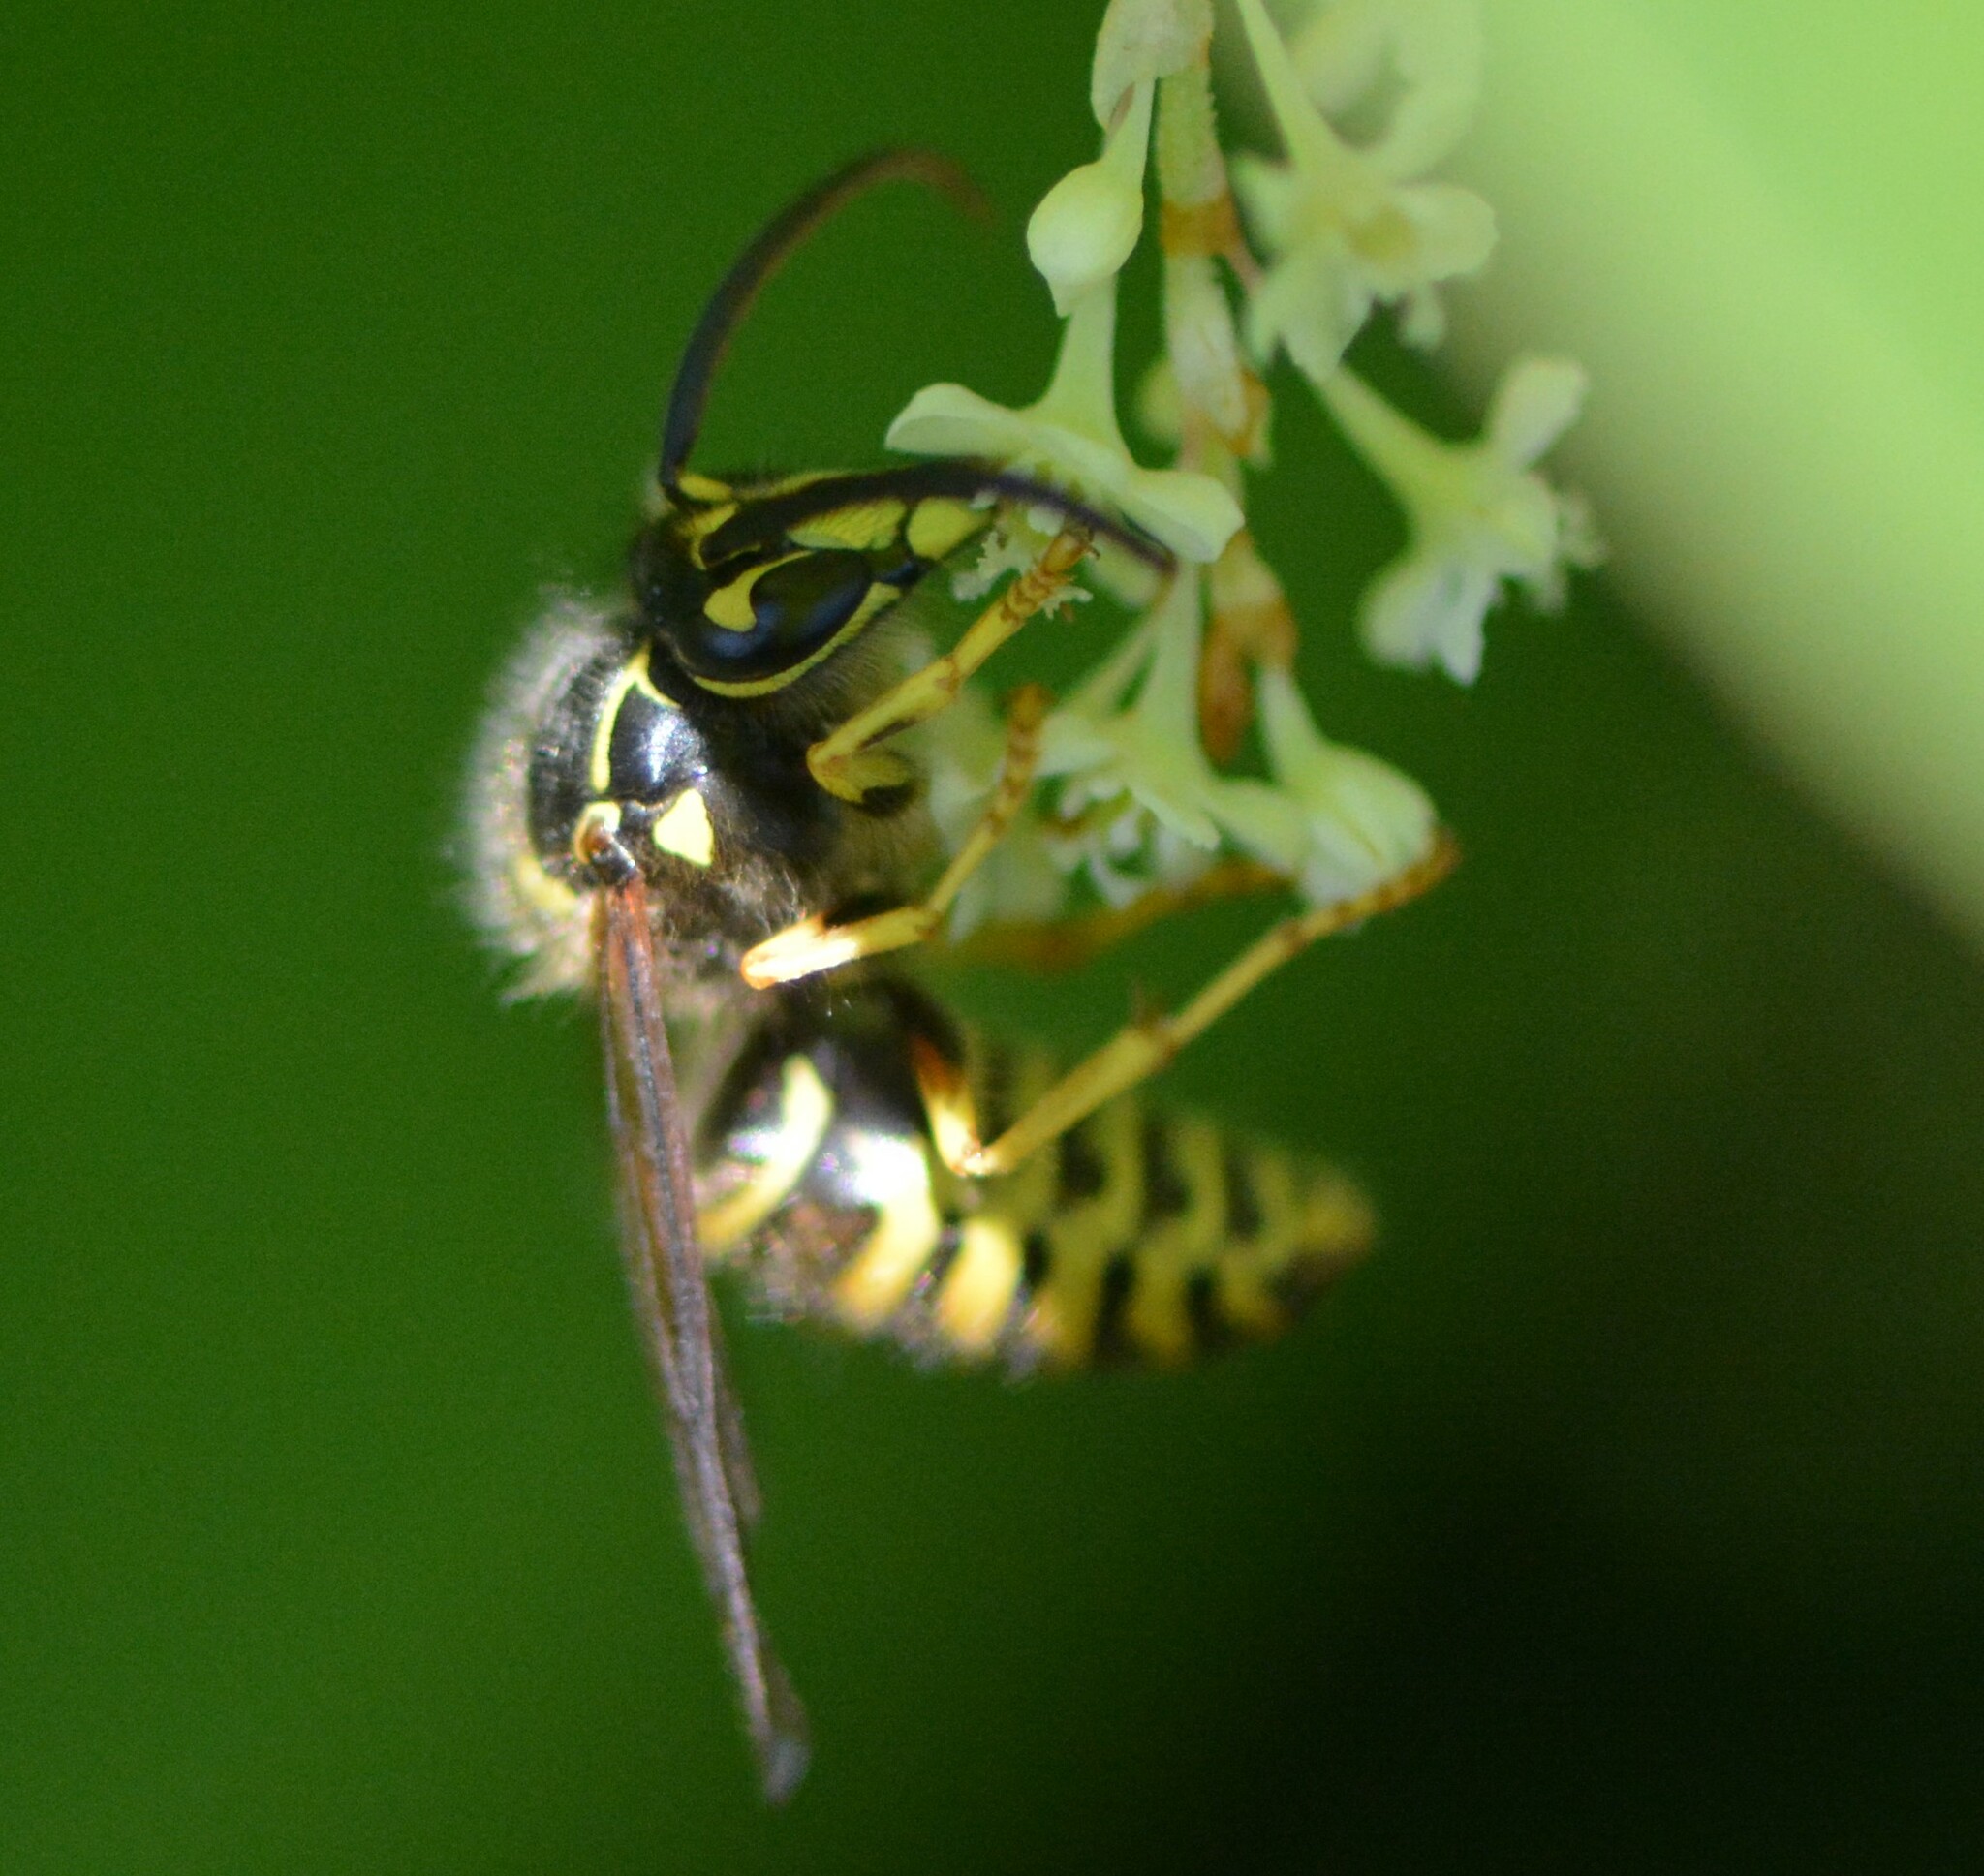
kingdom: Animalia
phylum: Arthropoda
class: Insecta
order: Hymenoptera
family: Vespidae
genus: Dolichovespula
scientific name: Dolichovespula arenaria
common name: Aerial yellowjacket
